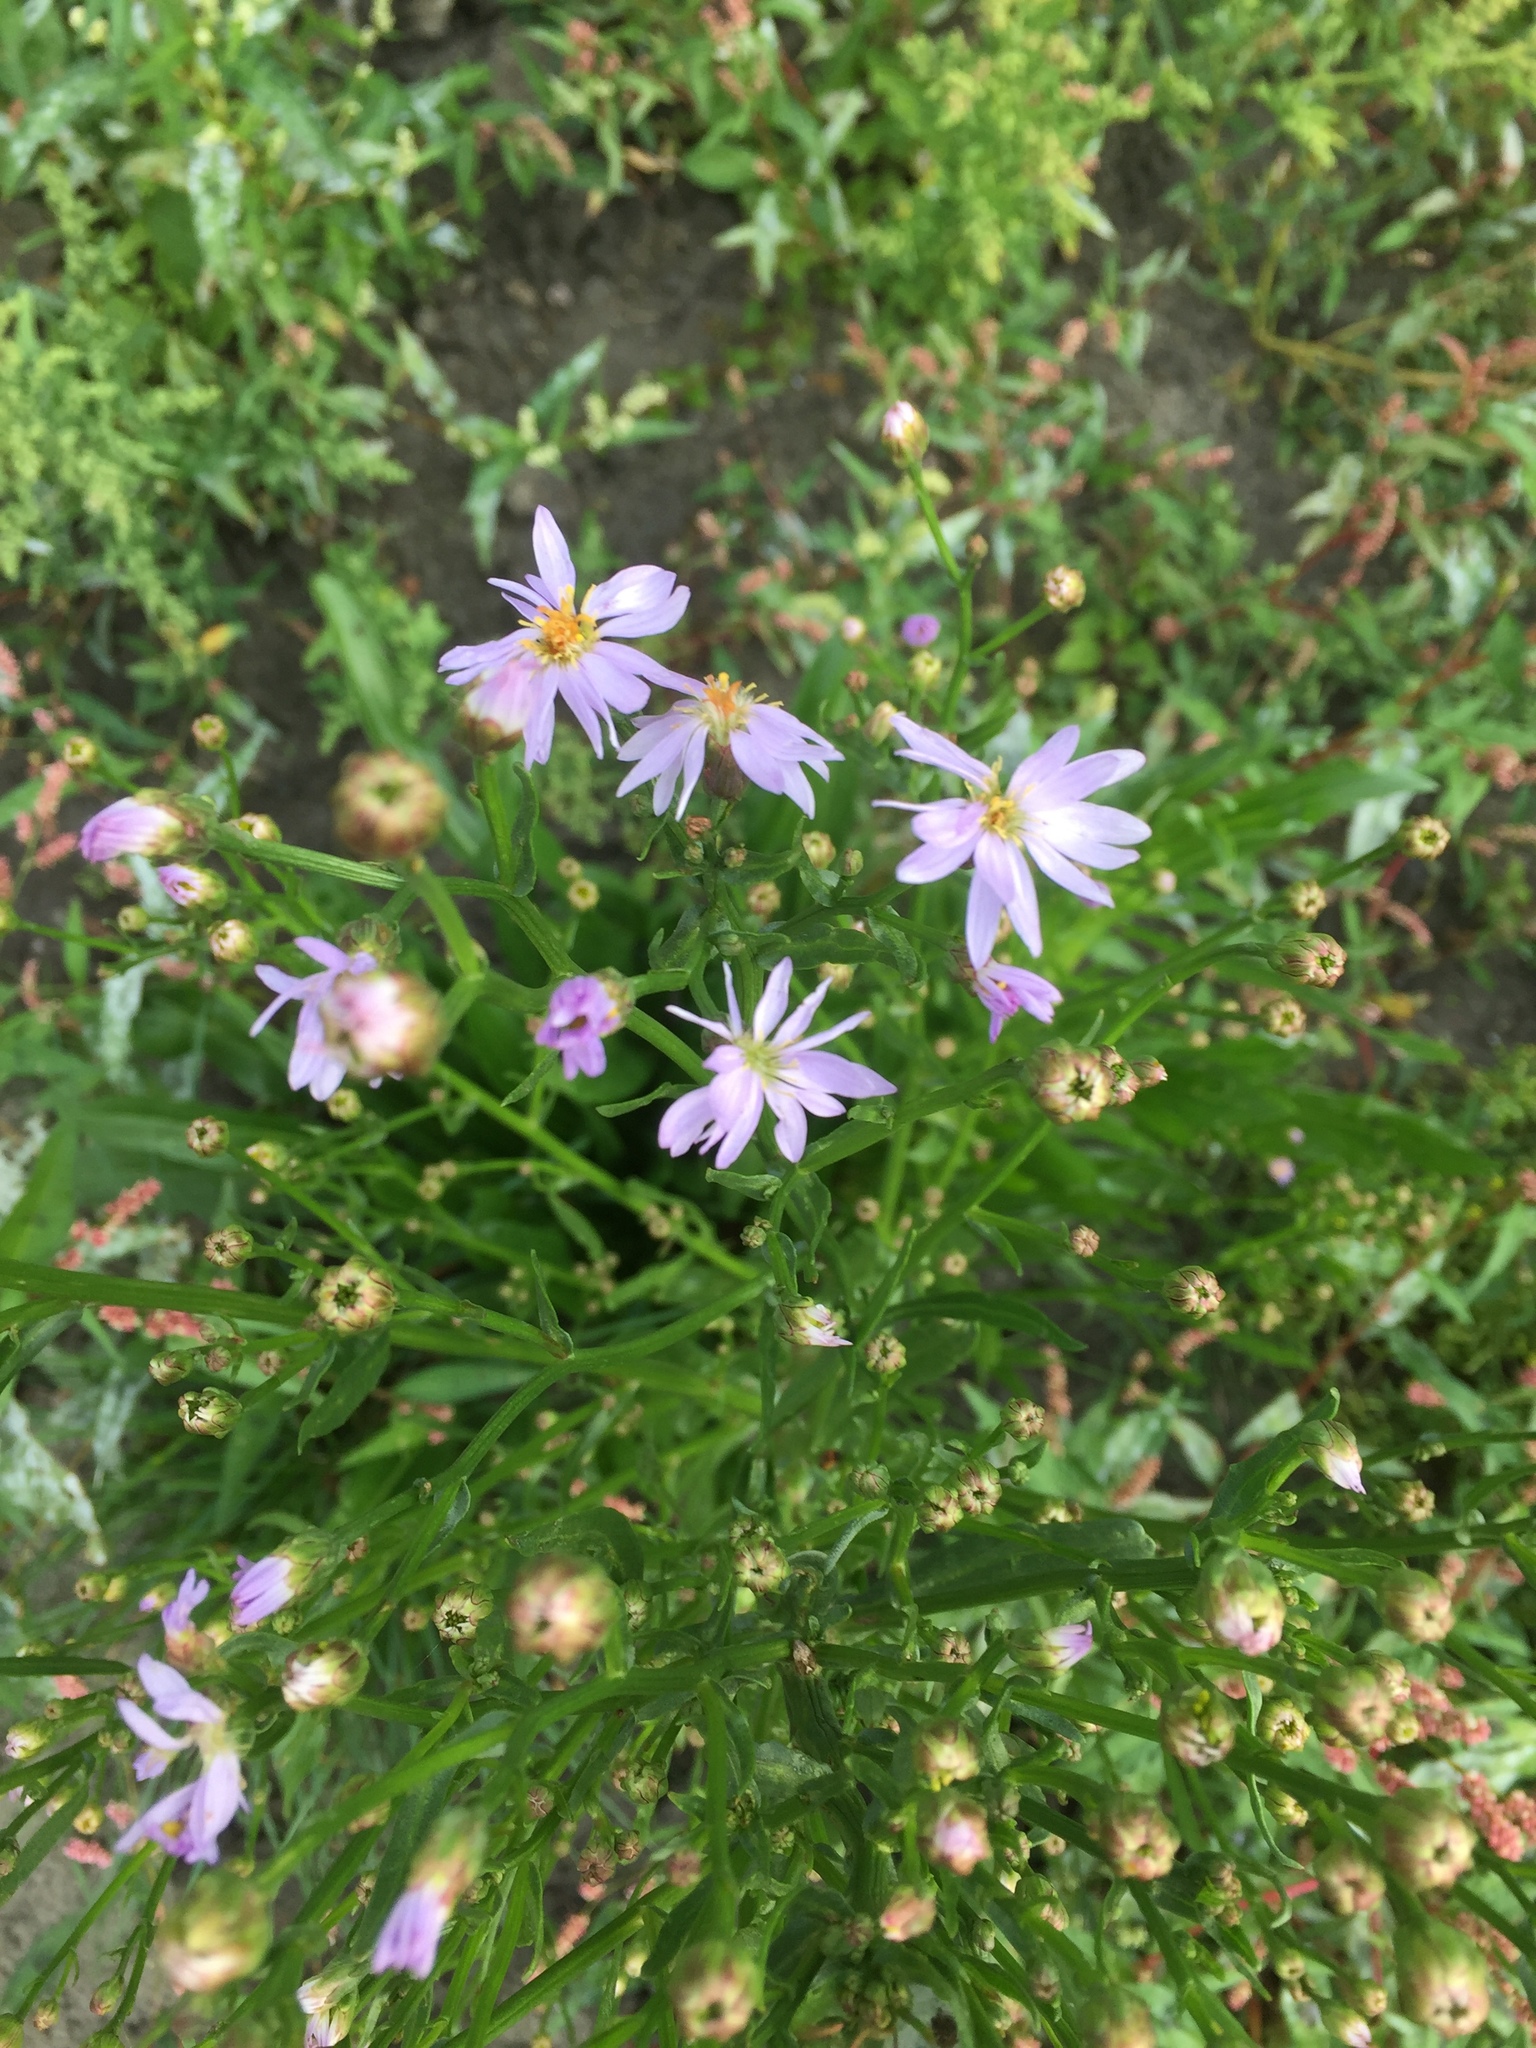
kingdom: Plantae
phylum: Tracheophyta
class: Magnoliopsida
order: Asterales
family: Asteraceae
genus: Tripolium
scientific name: Tripolium pannonicum
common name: Sea aster
